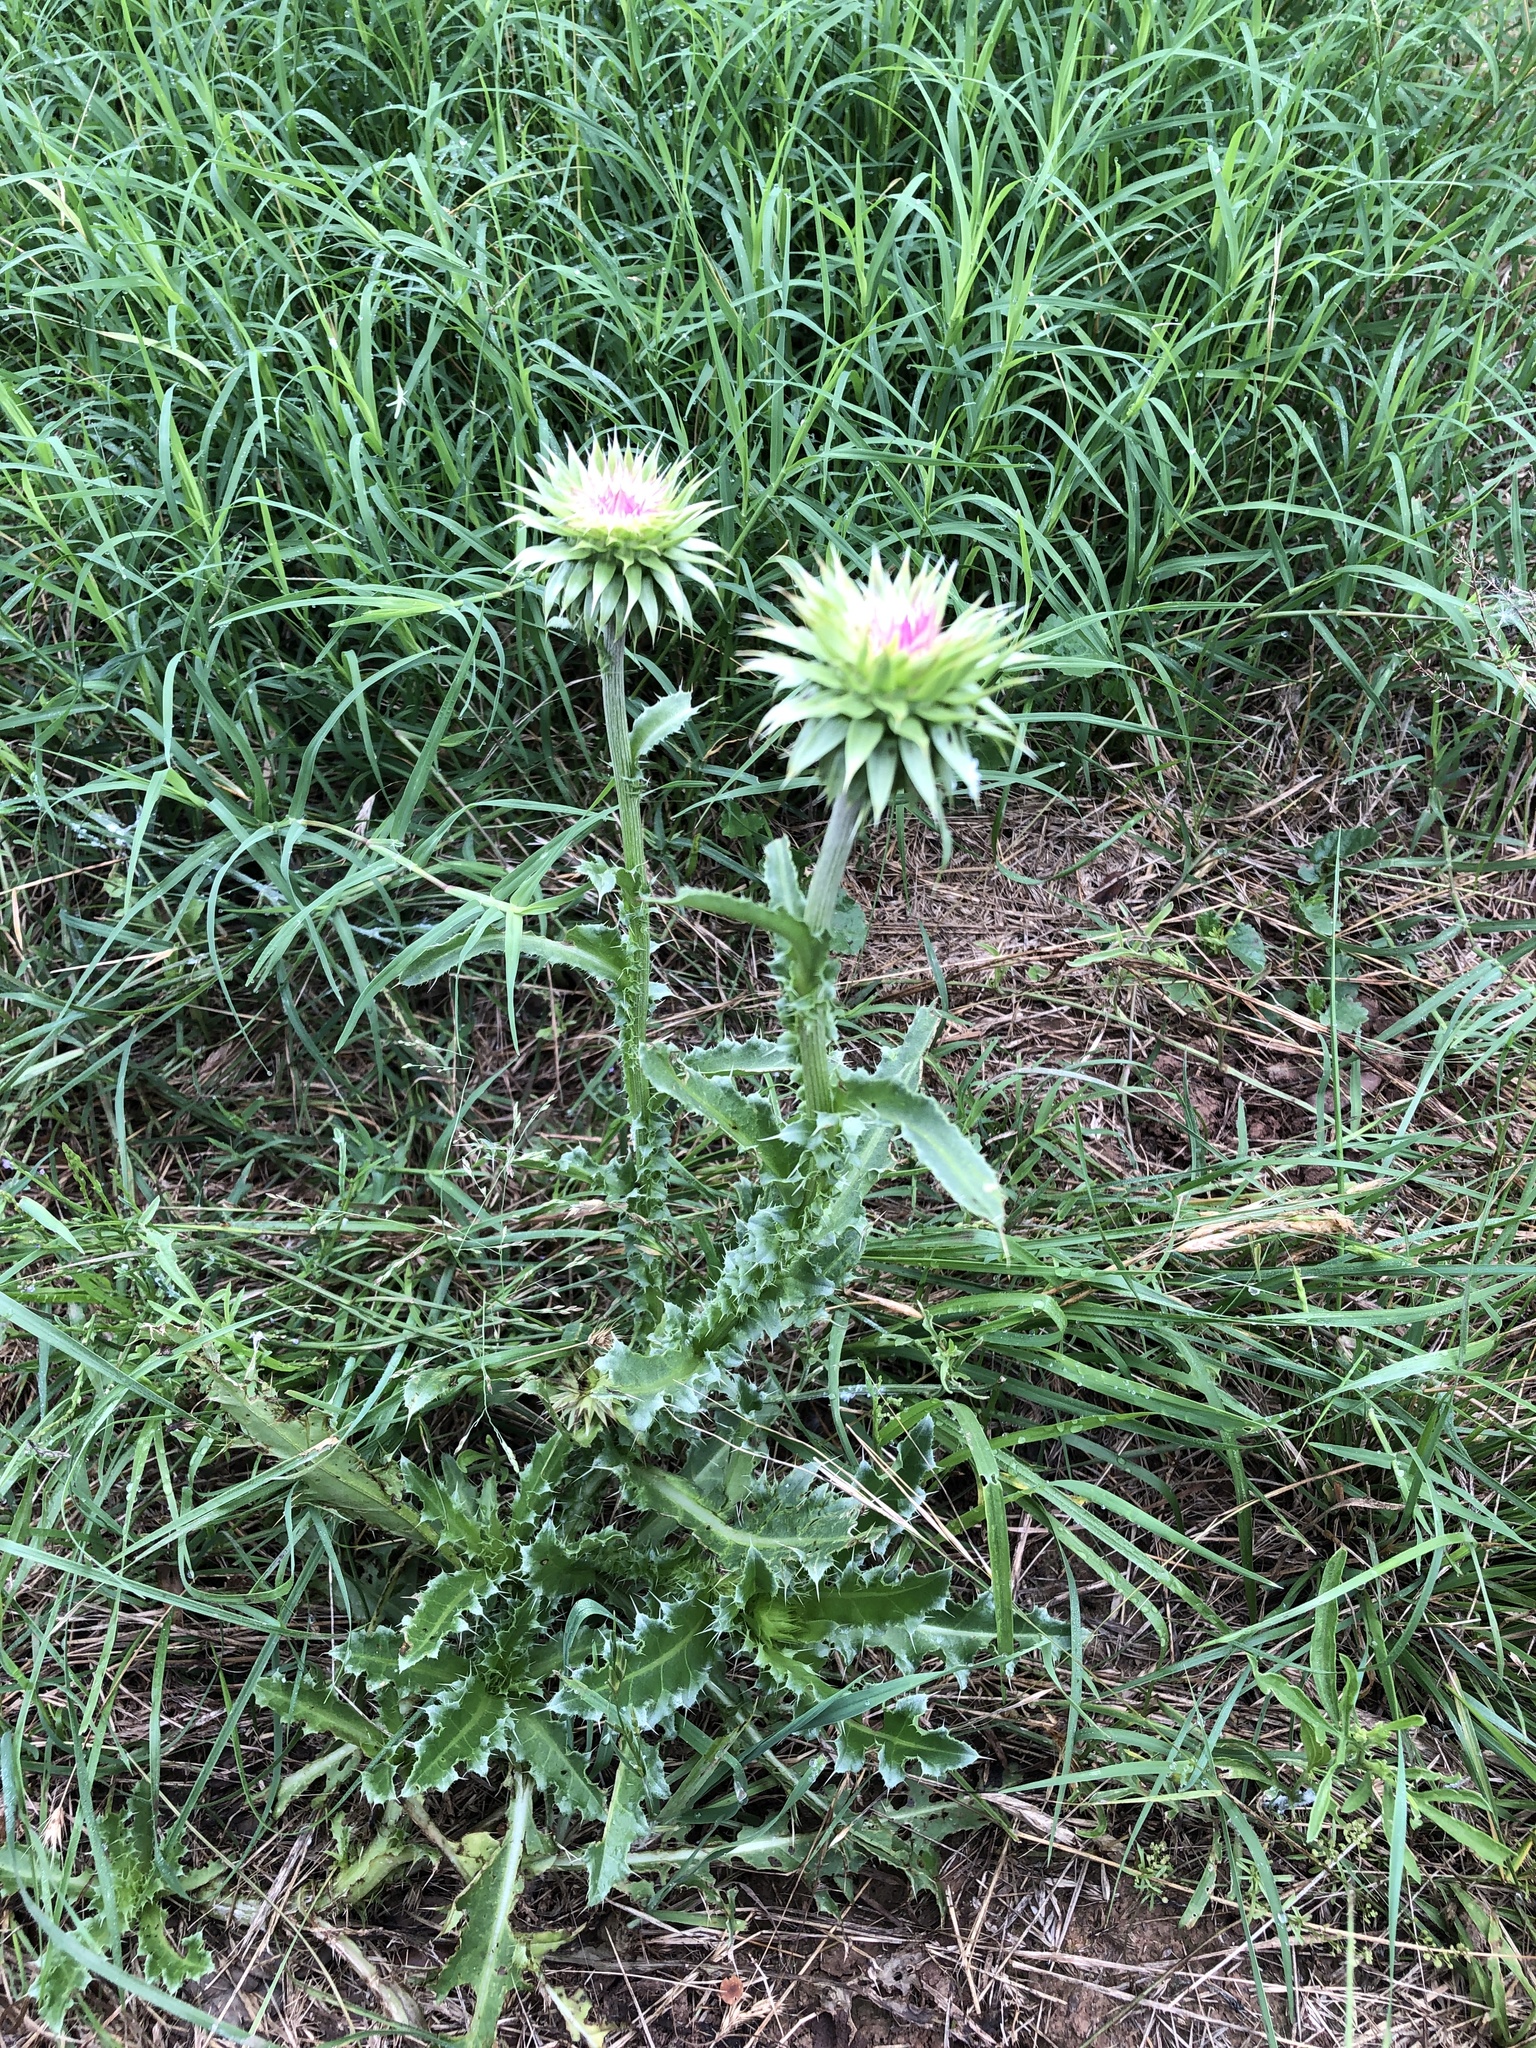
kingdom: Plantae
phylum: Tracheophyta
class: Magnoliopsida
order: Asterales
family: Asteraceae
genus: Carduus
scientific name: Carduus nutans
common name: Musk thistle
